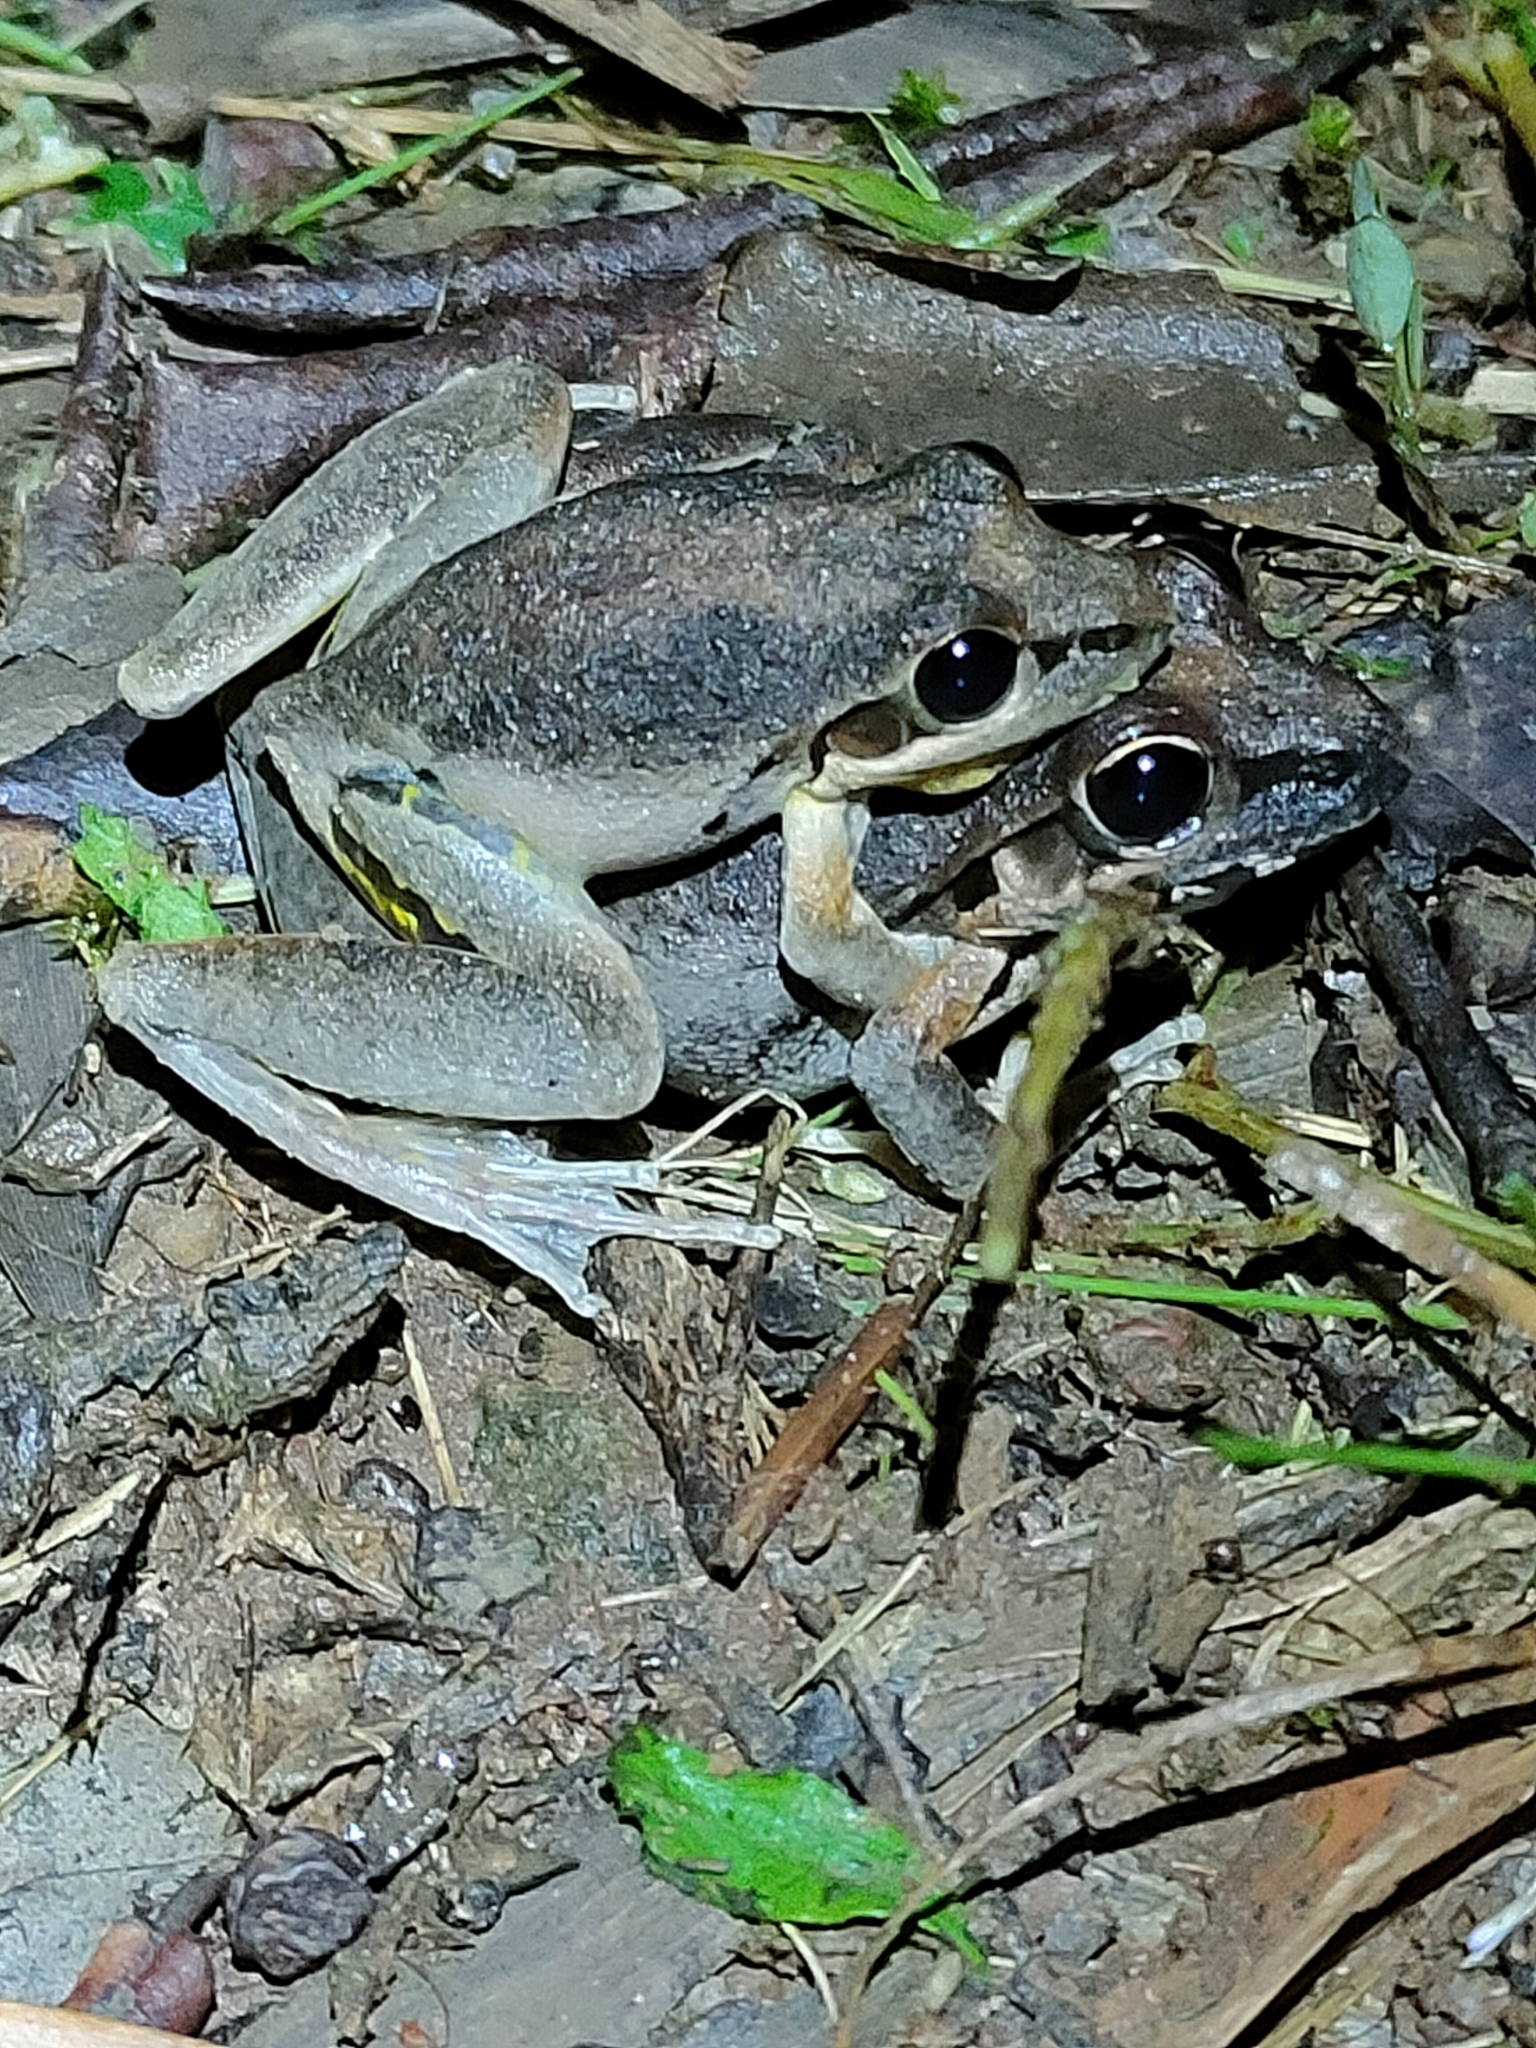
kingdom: Animalia
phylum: Chordata
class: Amphibia
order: Anura
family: Pelodryadidae
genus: Litoria
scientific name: Litoria latopalmata
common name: Broad-palmed rocket frog
